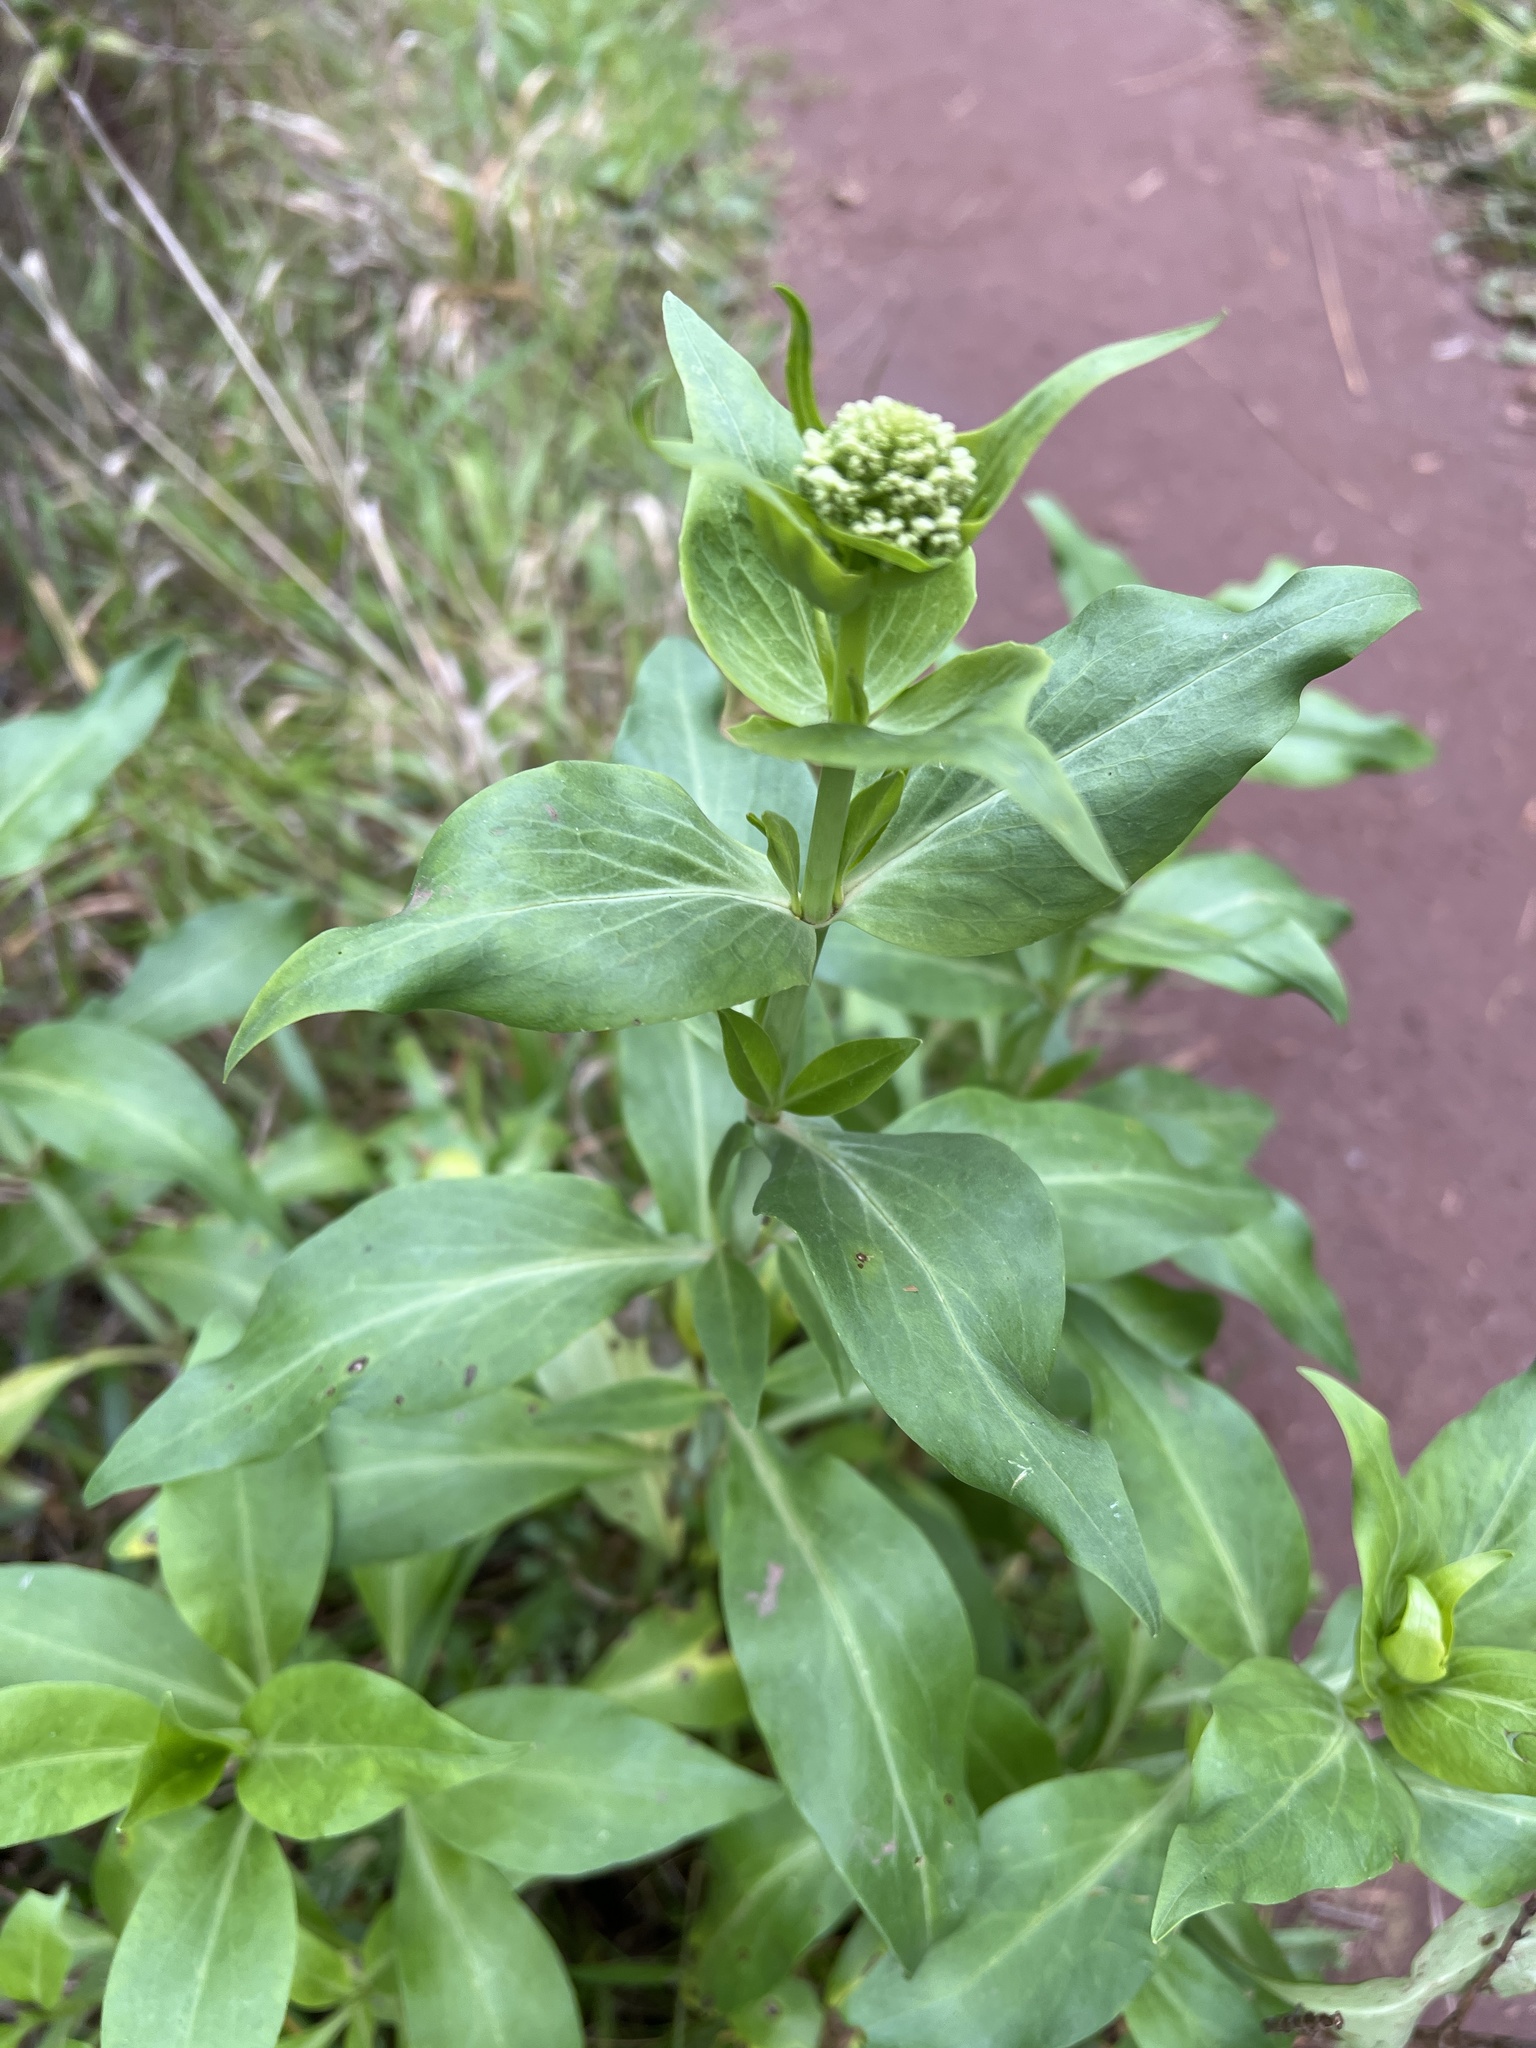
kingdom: Plantae
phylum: Tracheophyta
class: Magnoliopsida
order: Dipsacales
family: Caprifoliaceae
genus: Centranthus
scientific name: Centranthus ruber
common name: Red valerian
